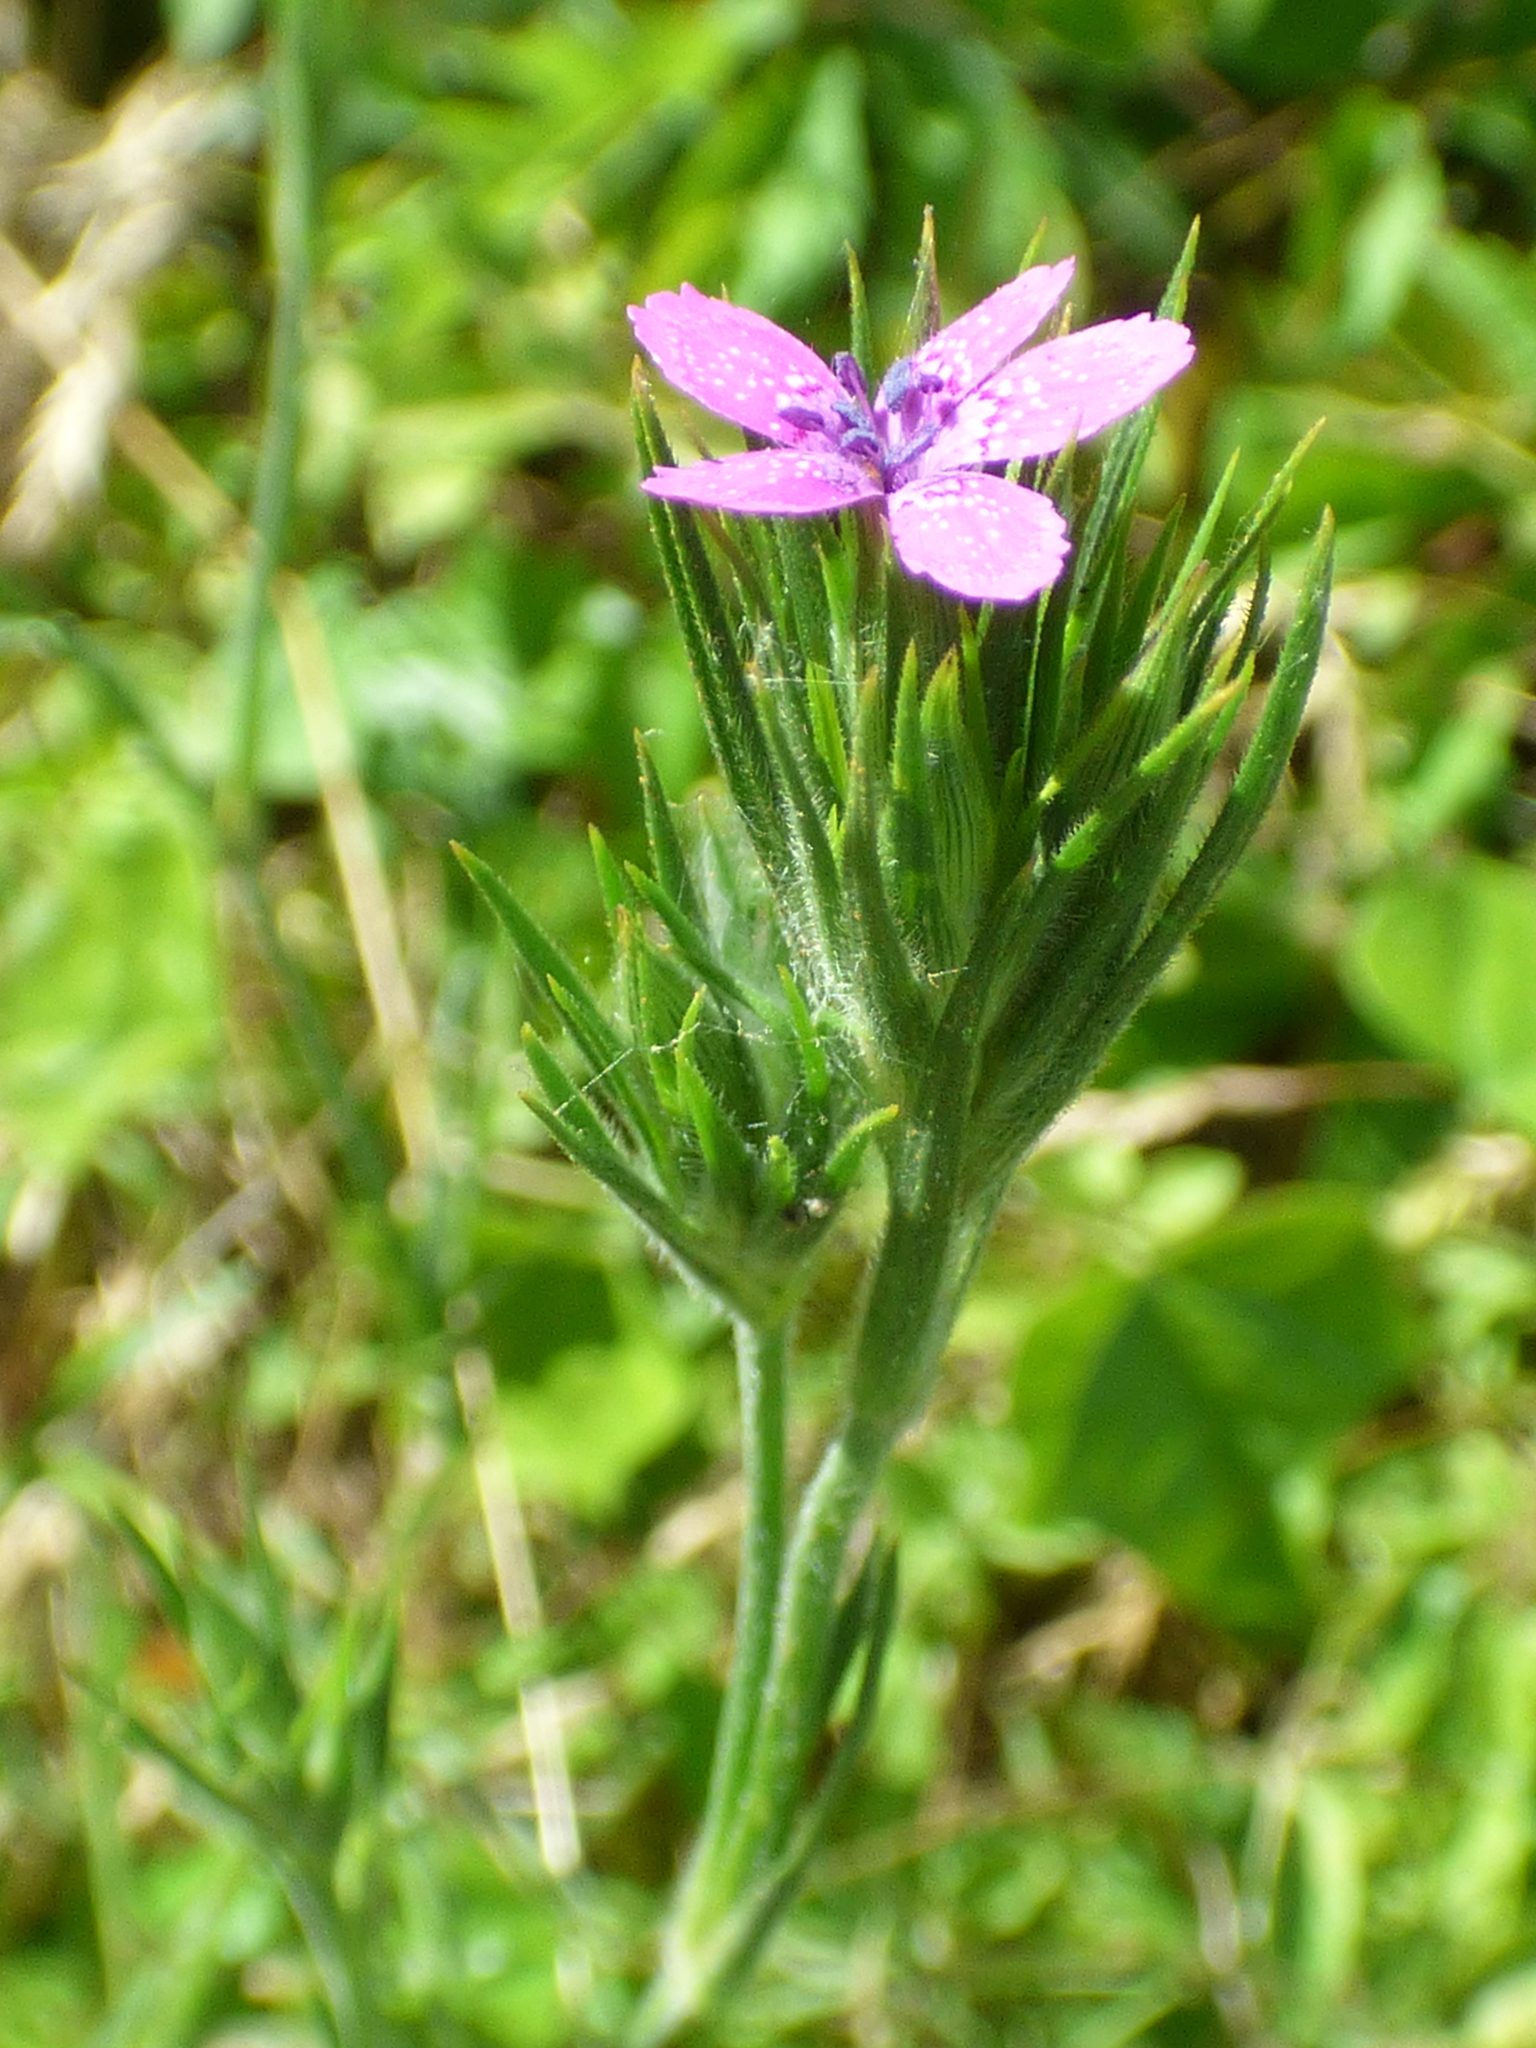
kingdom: Plantae
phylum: Tracheophyta
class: Magnoliopsida
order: Caryophyllales
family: Caryophyllaceae
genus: Dianthus
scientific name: Dianthus armeria
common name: Deptford pink
